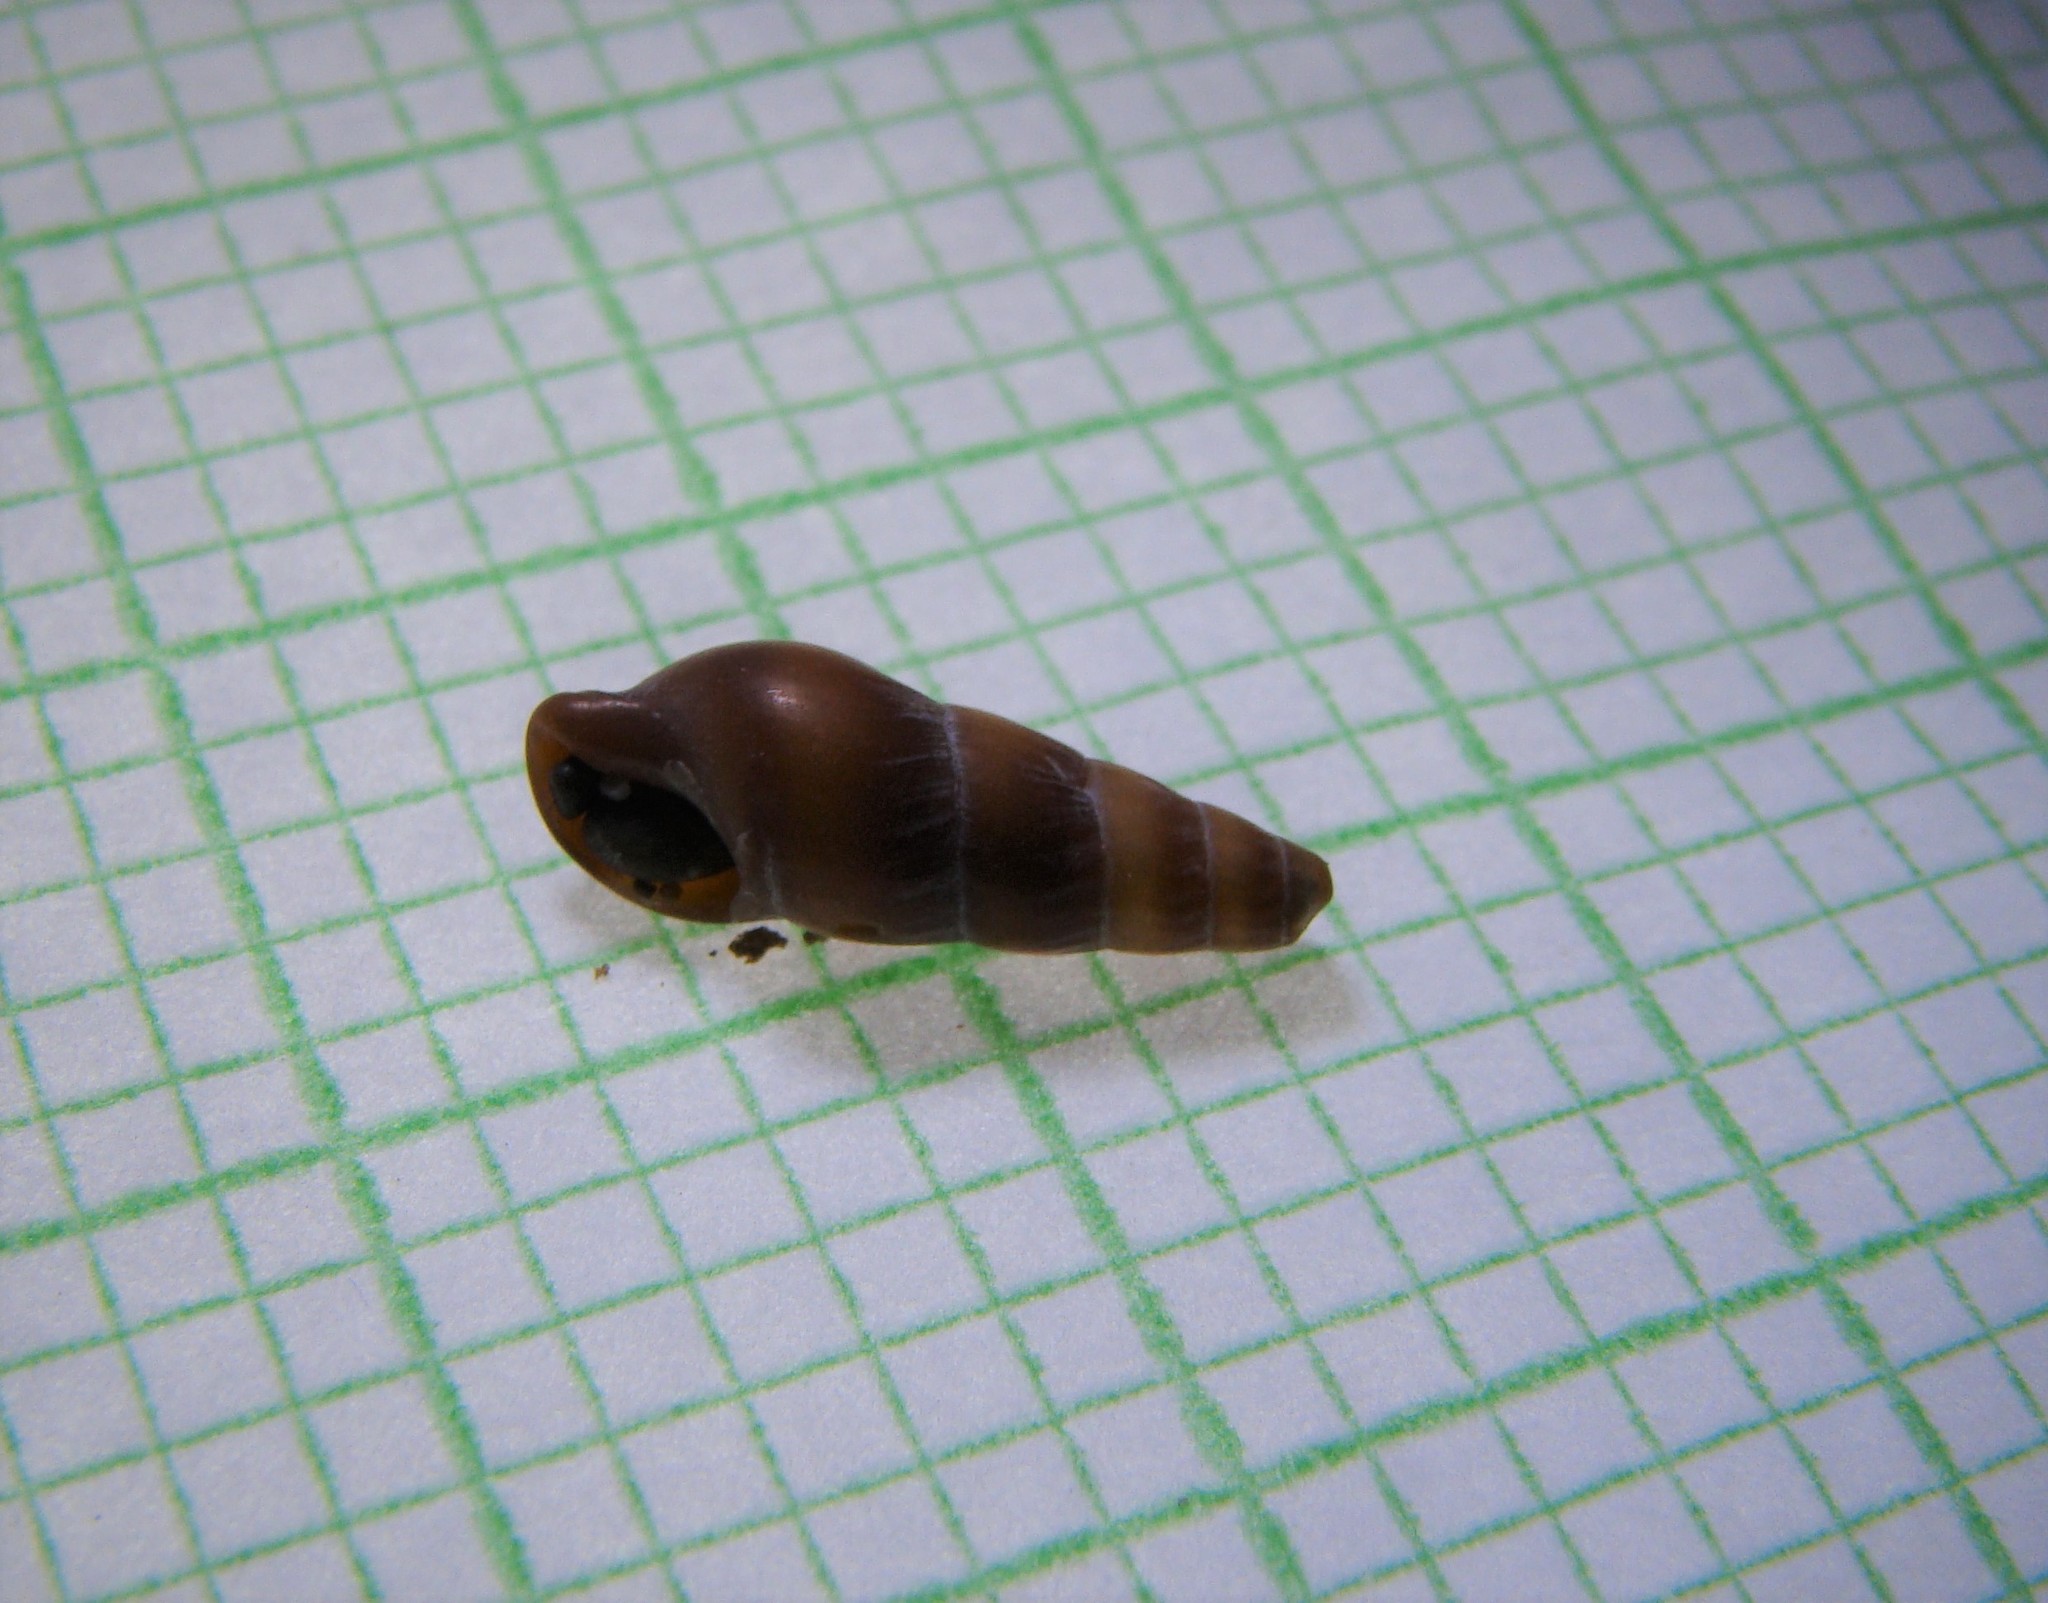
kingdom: Animalia
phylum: Mollusca
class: Gastropoda
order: Neogastropoda
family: Terebridae
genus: Duplicaria
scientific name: Duplicaria tristis
